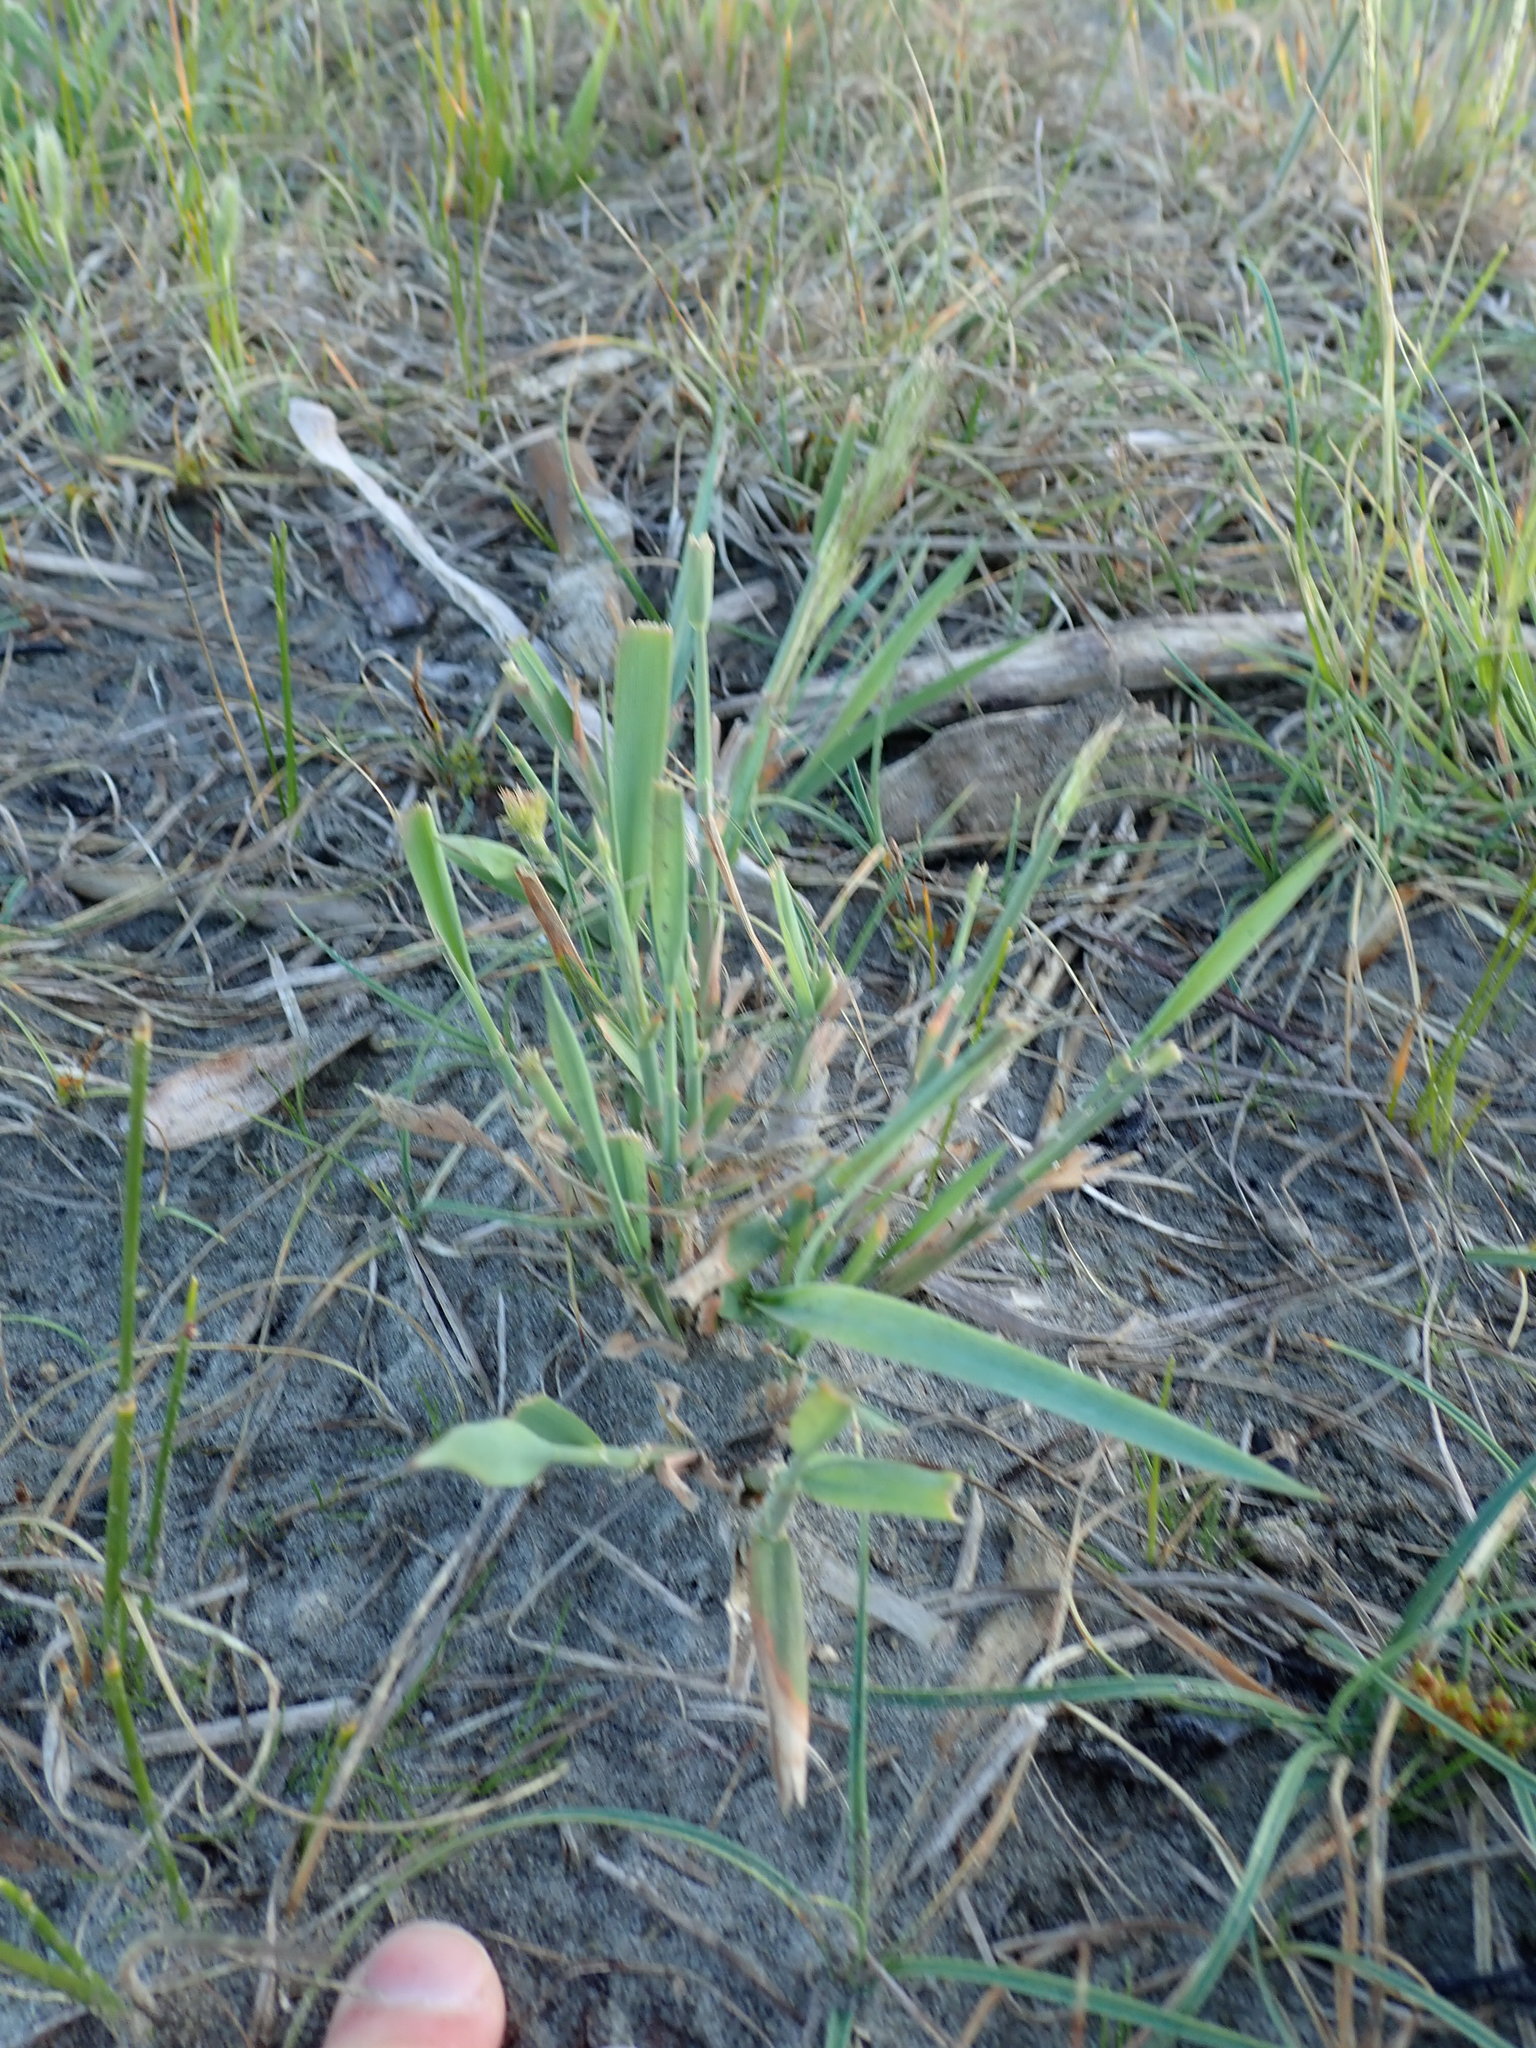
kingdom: Plantae
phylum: Tracheophyta
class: Liliopsida
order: Poales
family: Poaceae
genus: Lachnagrostis
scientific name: Lachnagrostis billardierei
